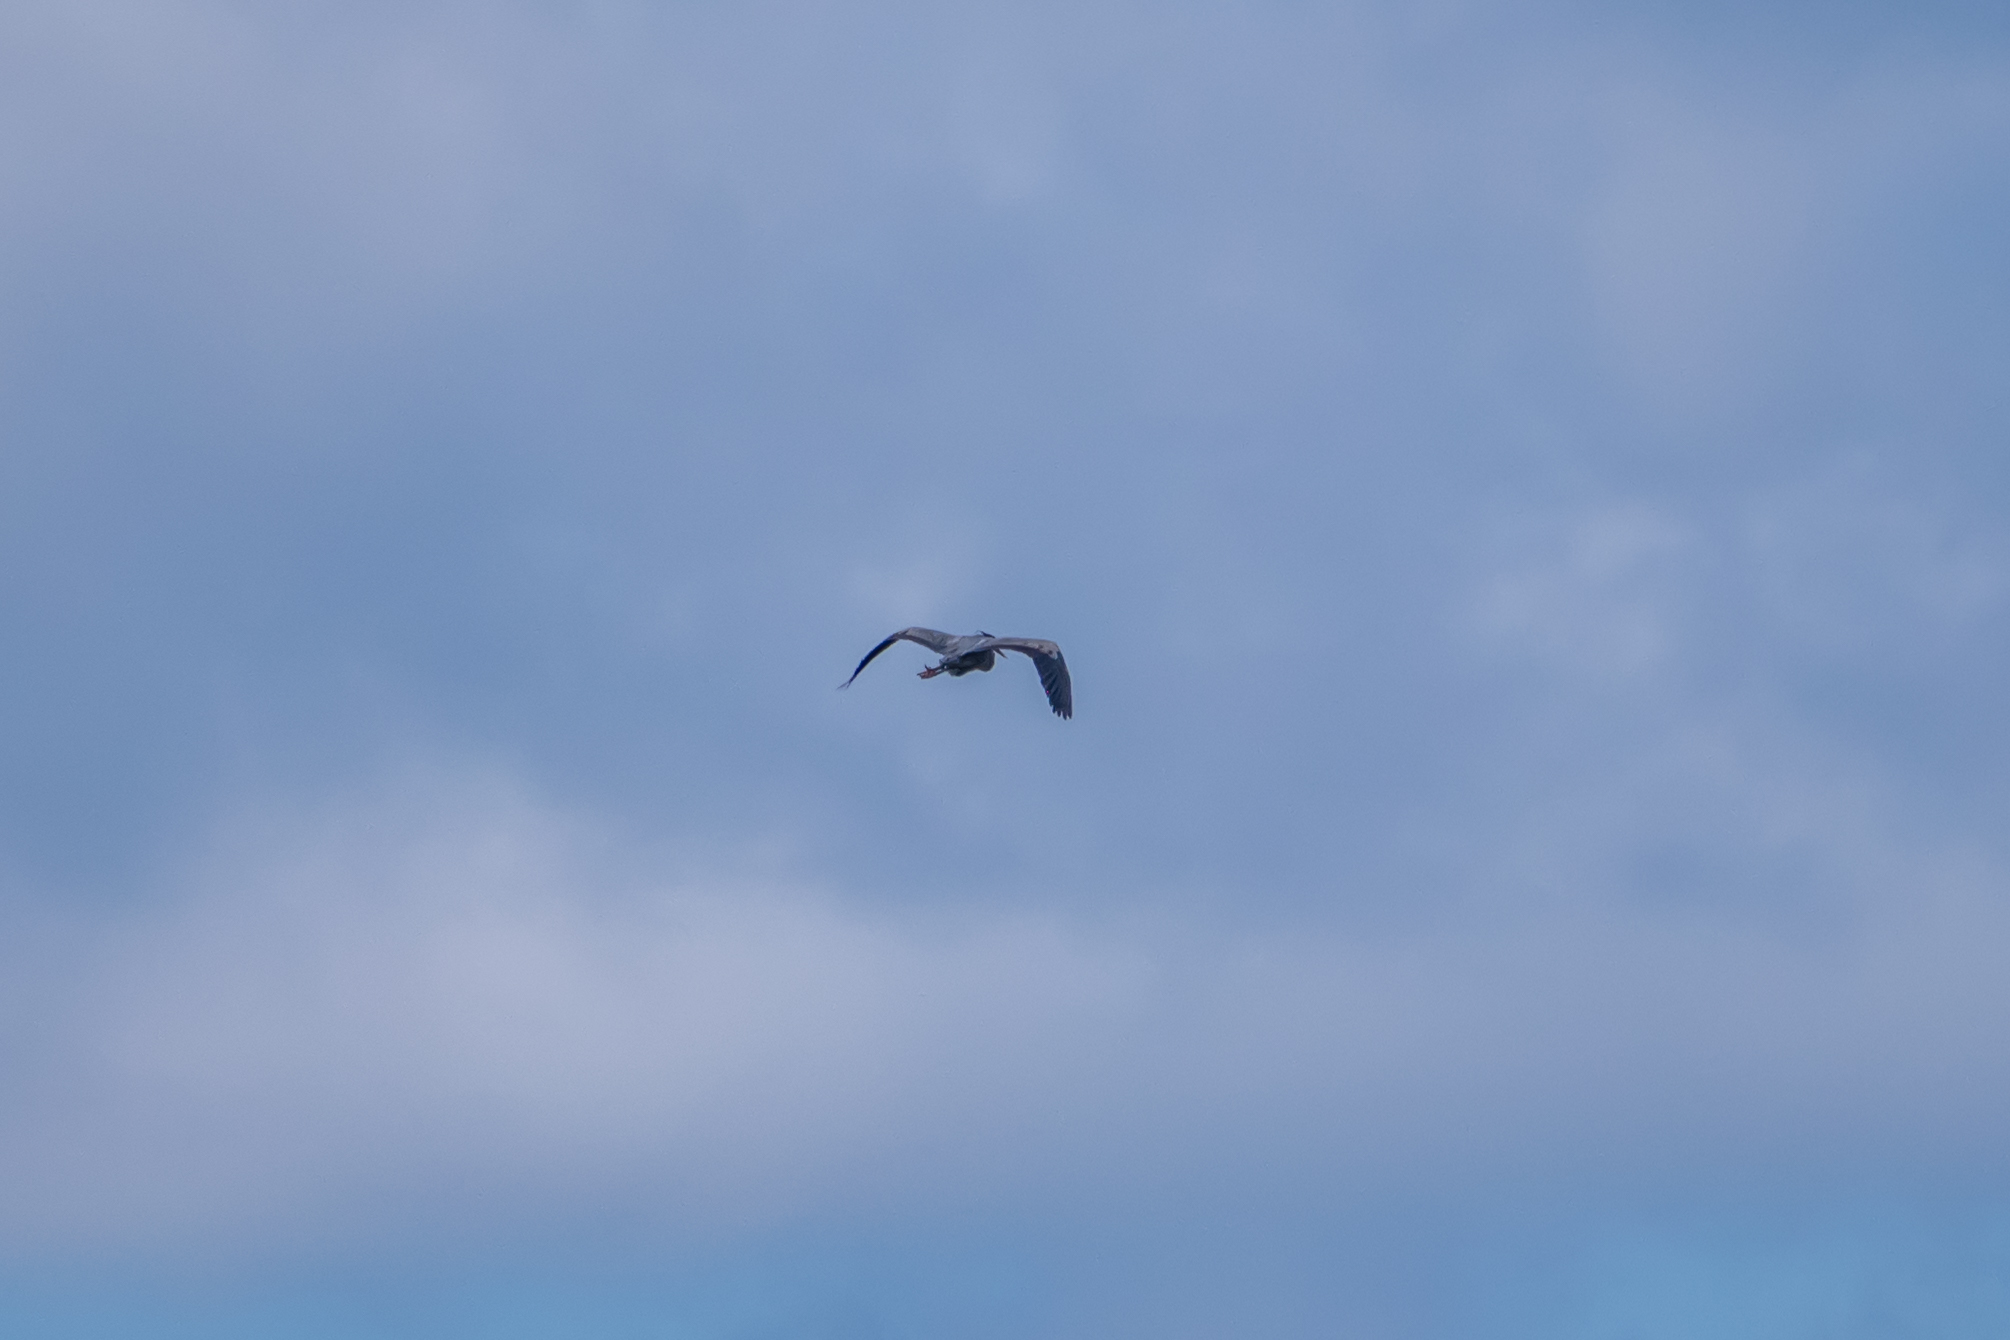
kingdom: Animalia
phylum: Chordata
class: Aves
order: Pelecaniformes
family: Ardeidae
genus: Ardea
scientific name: Ardea herodias
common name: Great blue heron
